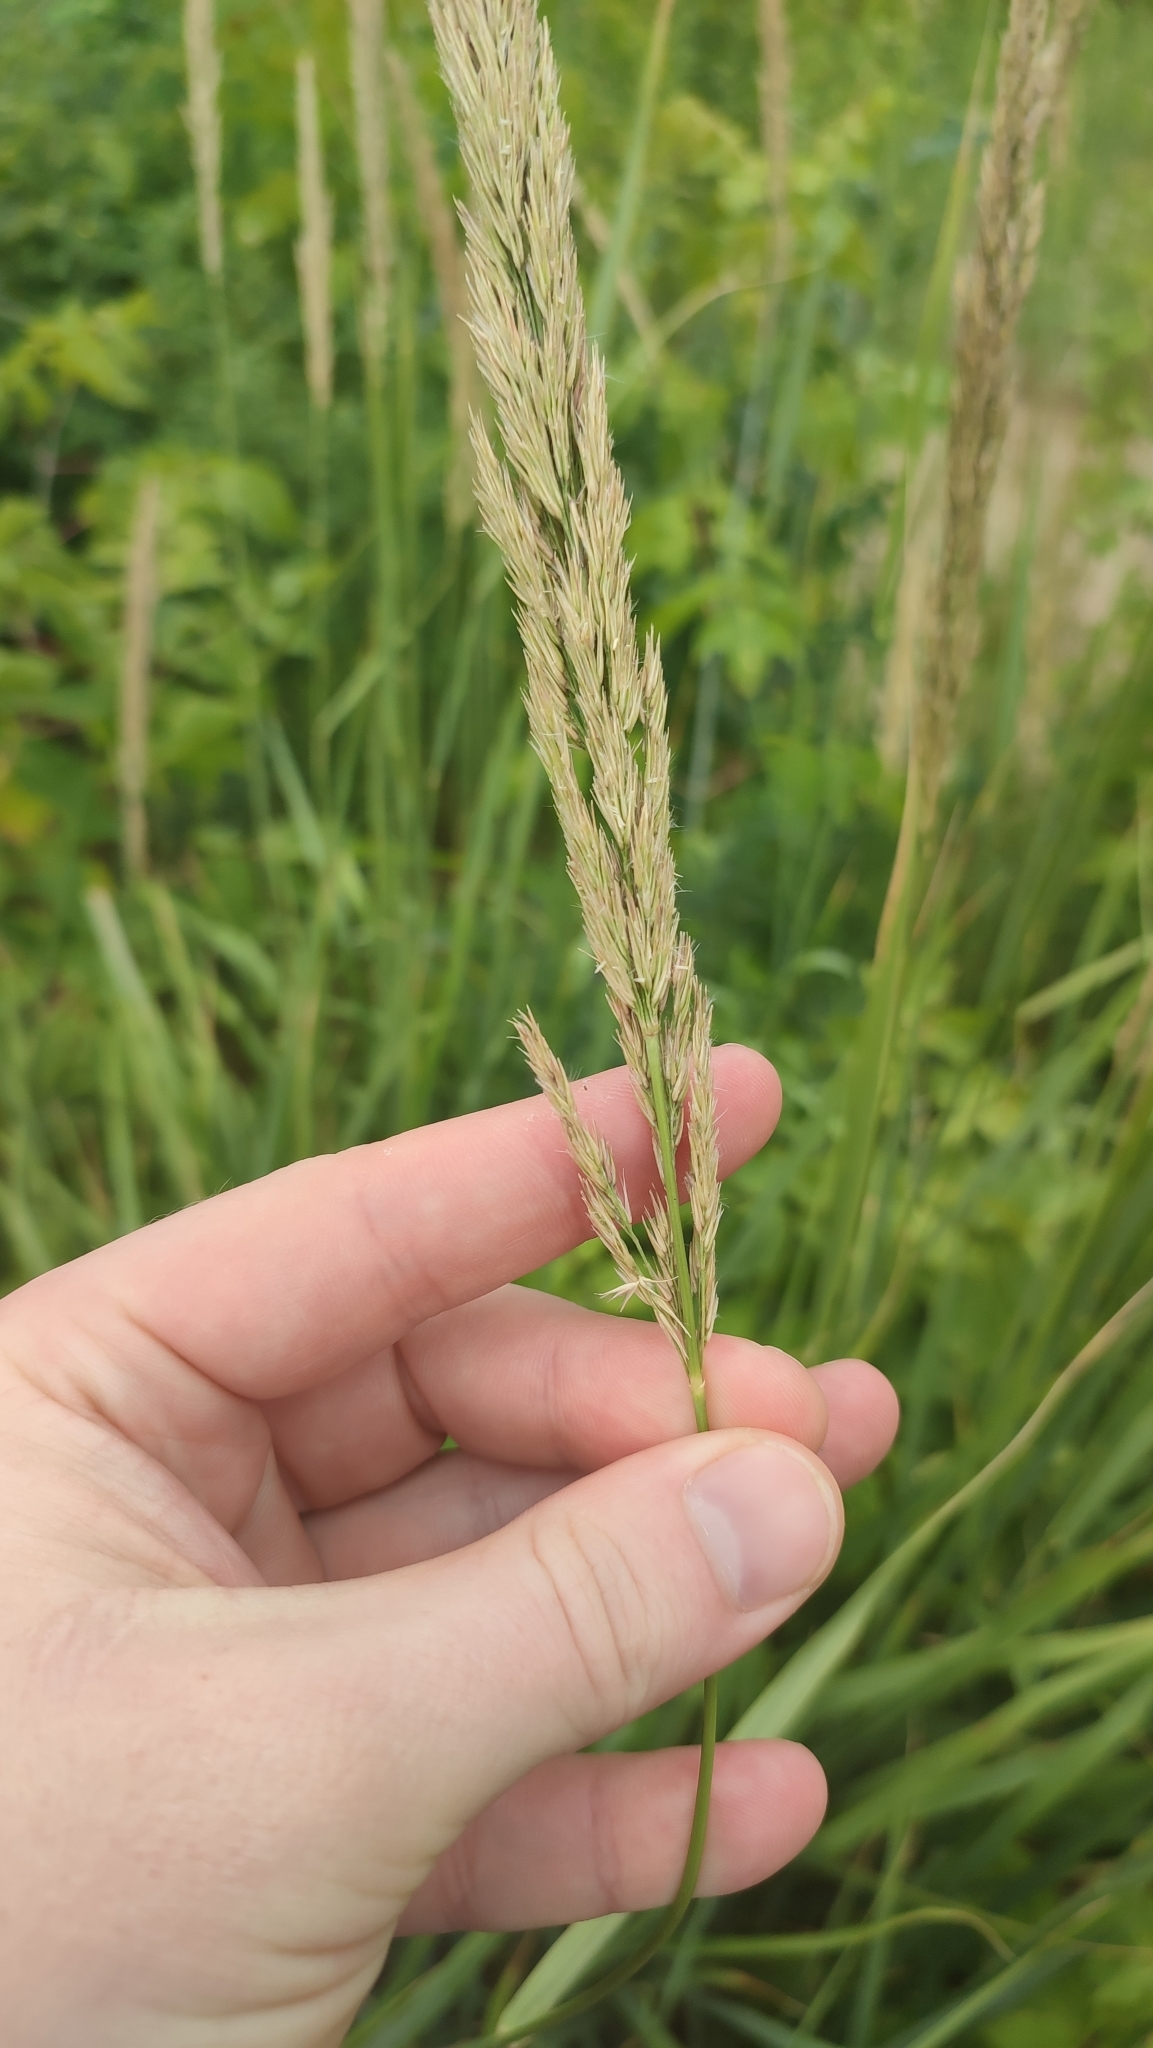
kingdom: Plantae
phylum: Tracheophyta
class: Liliopsida
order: Poales
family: Poaceae
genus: Calamagrostis
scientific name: Calamagrostis epigejos
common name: Wood small-reed
